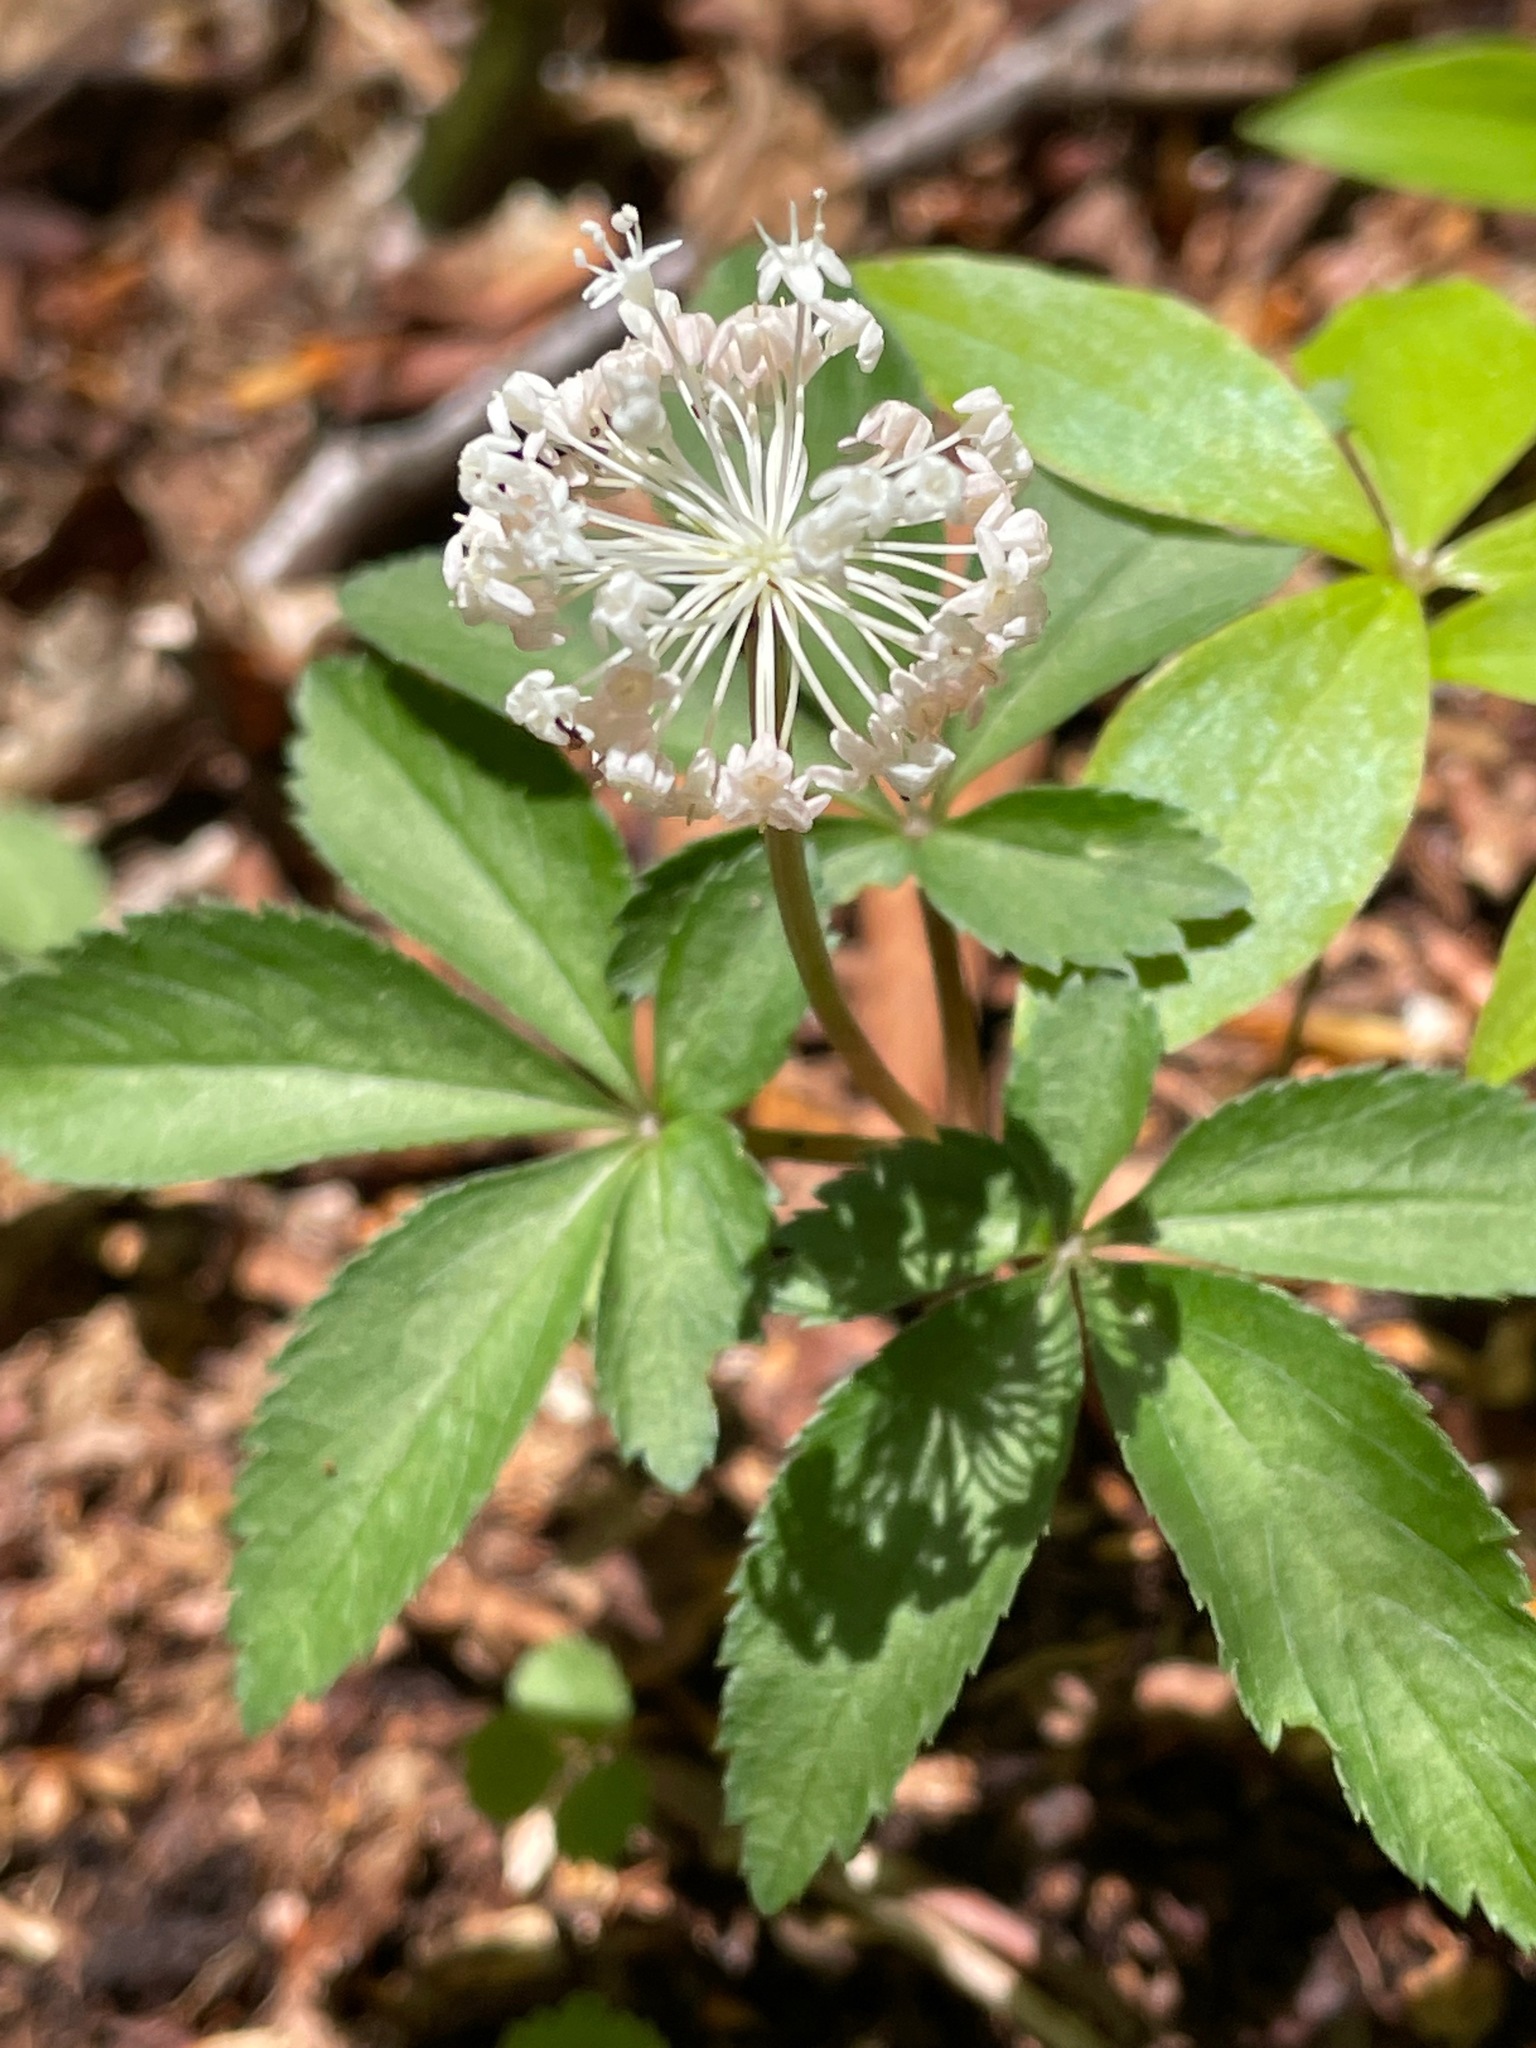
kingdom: Plantae
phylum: Tracheophyta
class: Magnoliopsida
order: Apiales
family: Araliaceae
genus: Panax
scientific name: Panax trifolius
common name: Dwarf ginseng
